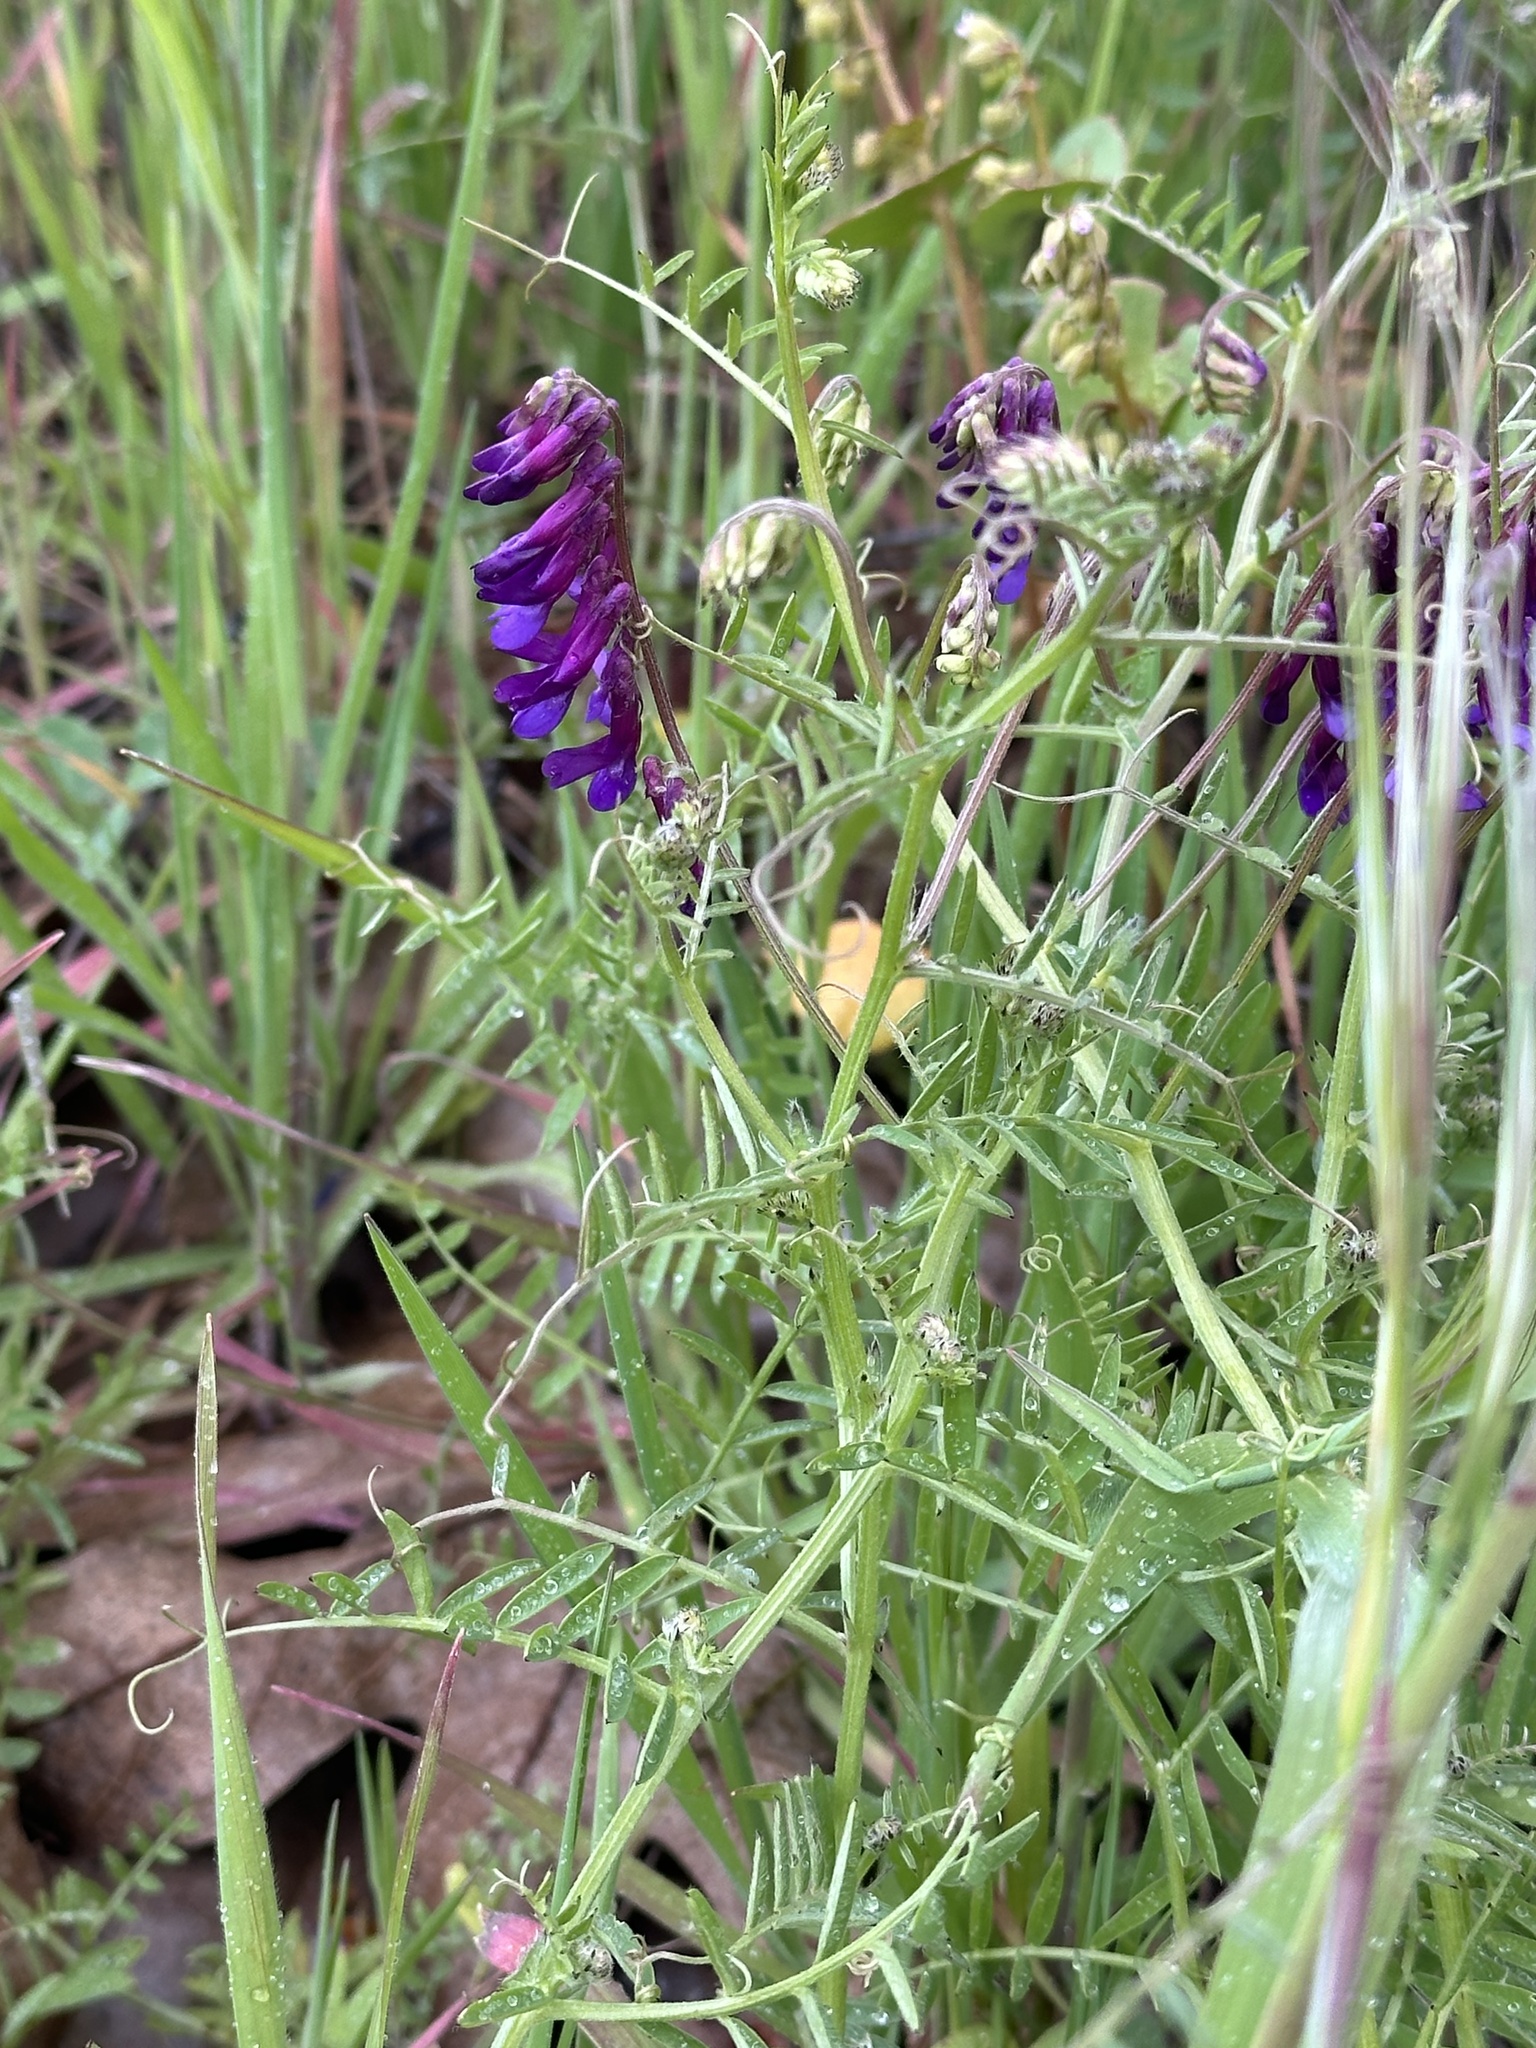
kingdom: Plantae
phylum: Tracheophyta
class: Magnoliopsida
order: Fabales
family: Fabaceae
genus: Vicia
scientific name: Vicia villosa
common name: Fodder vetch
